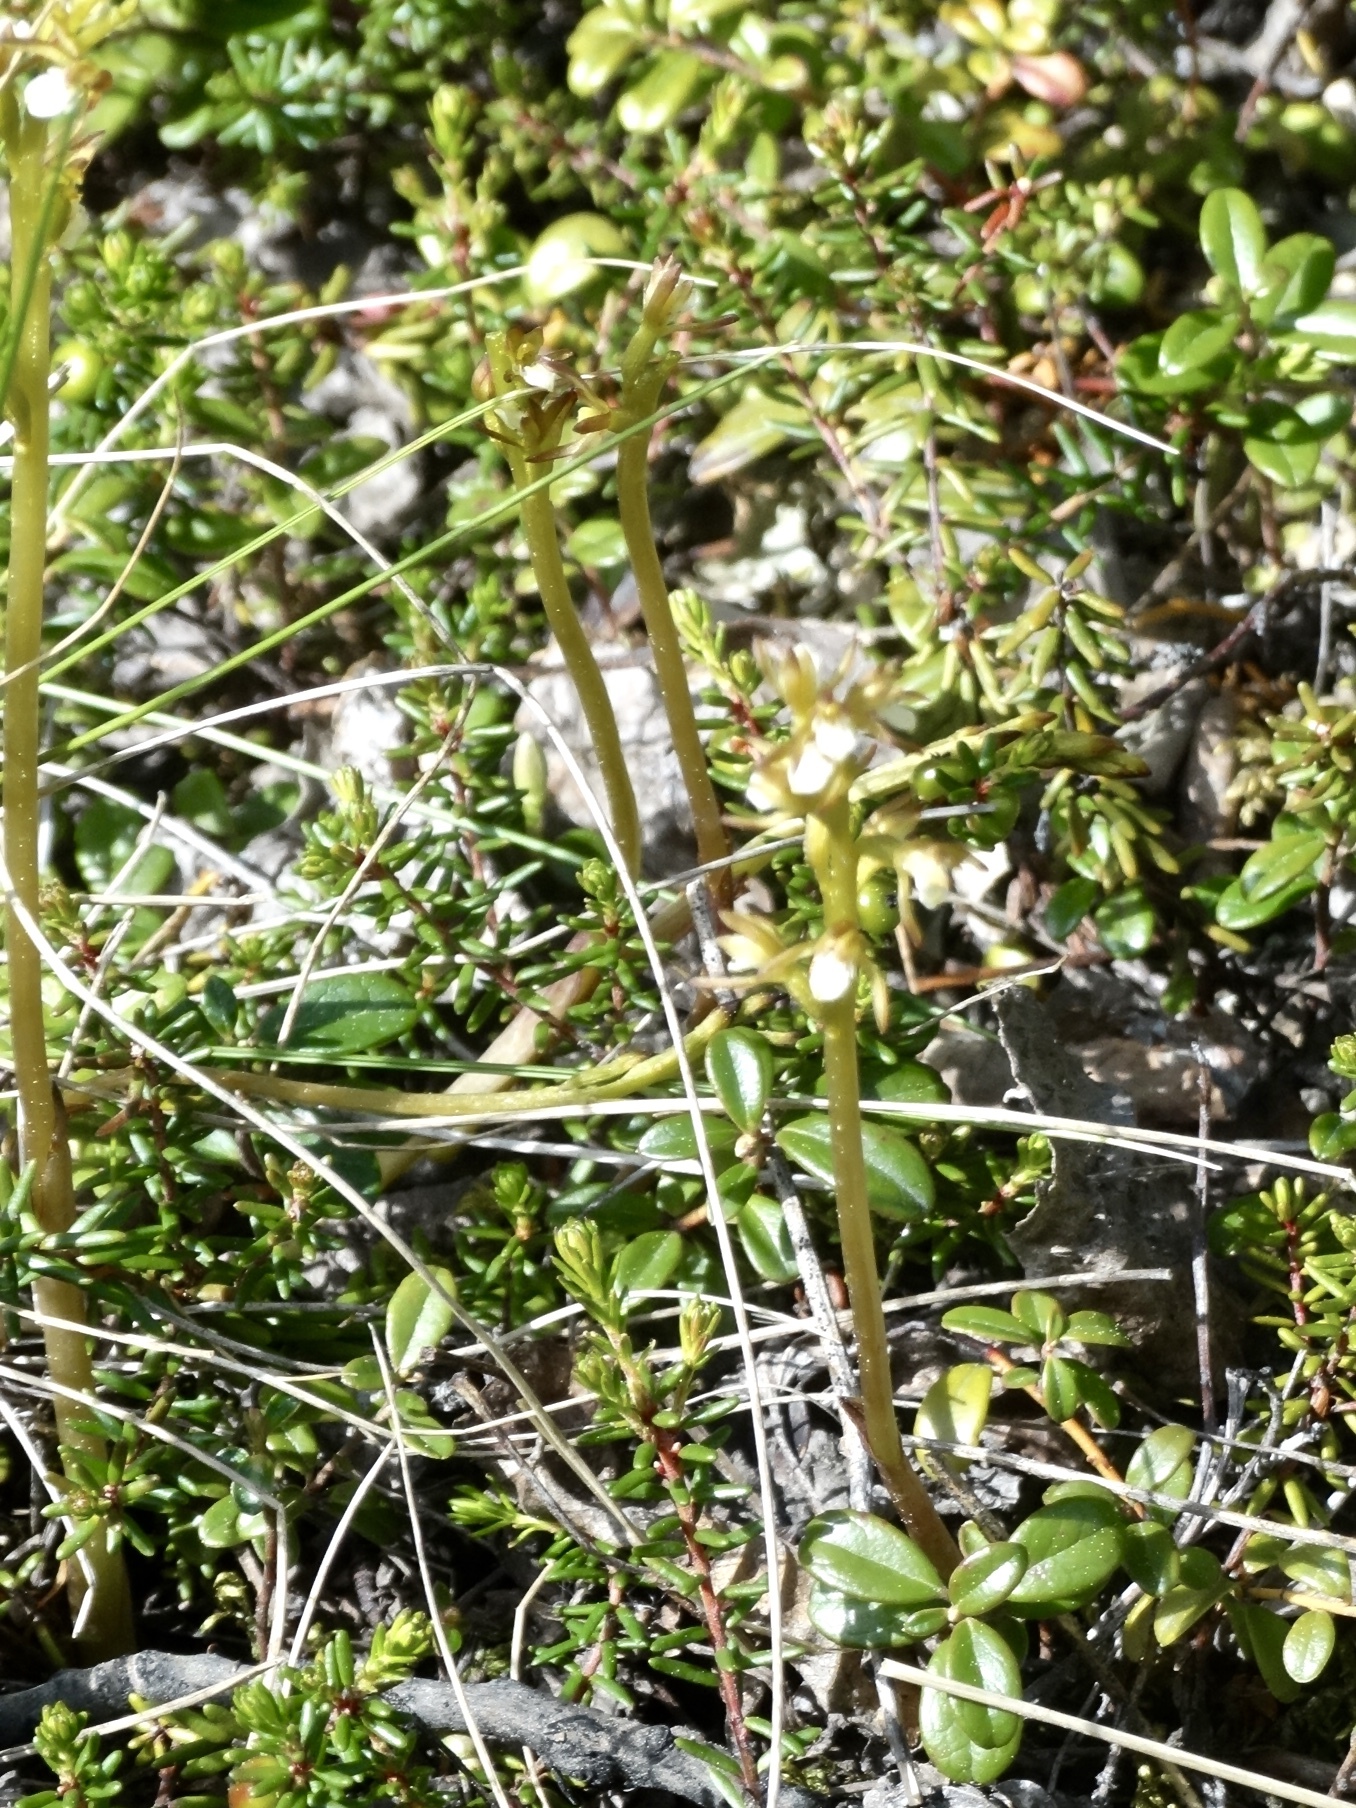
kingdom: Plantae
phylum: Tracheophyta
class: Liliopsida
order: Asparagales
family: Orchidaceae
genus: Corallorhiza
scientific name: Corallorhiza trifida
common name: Yellow coralroot
